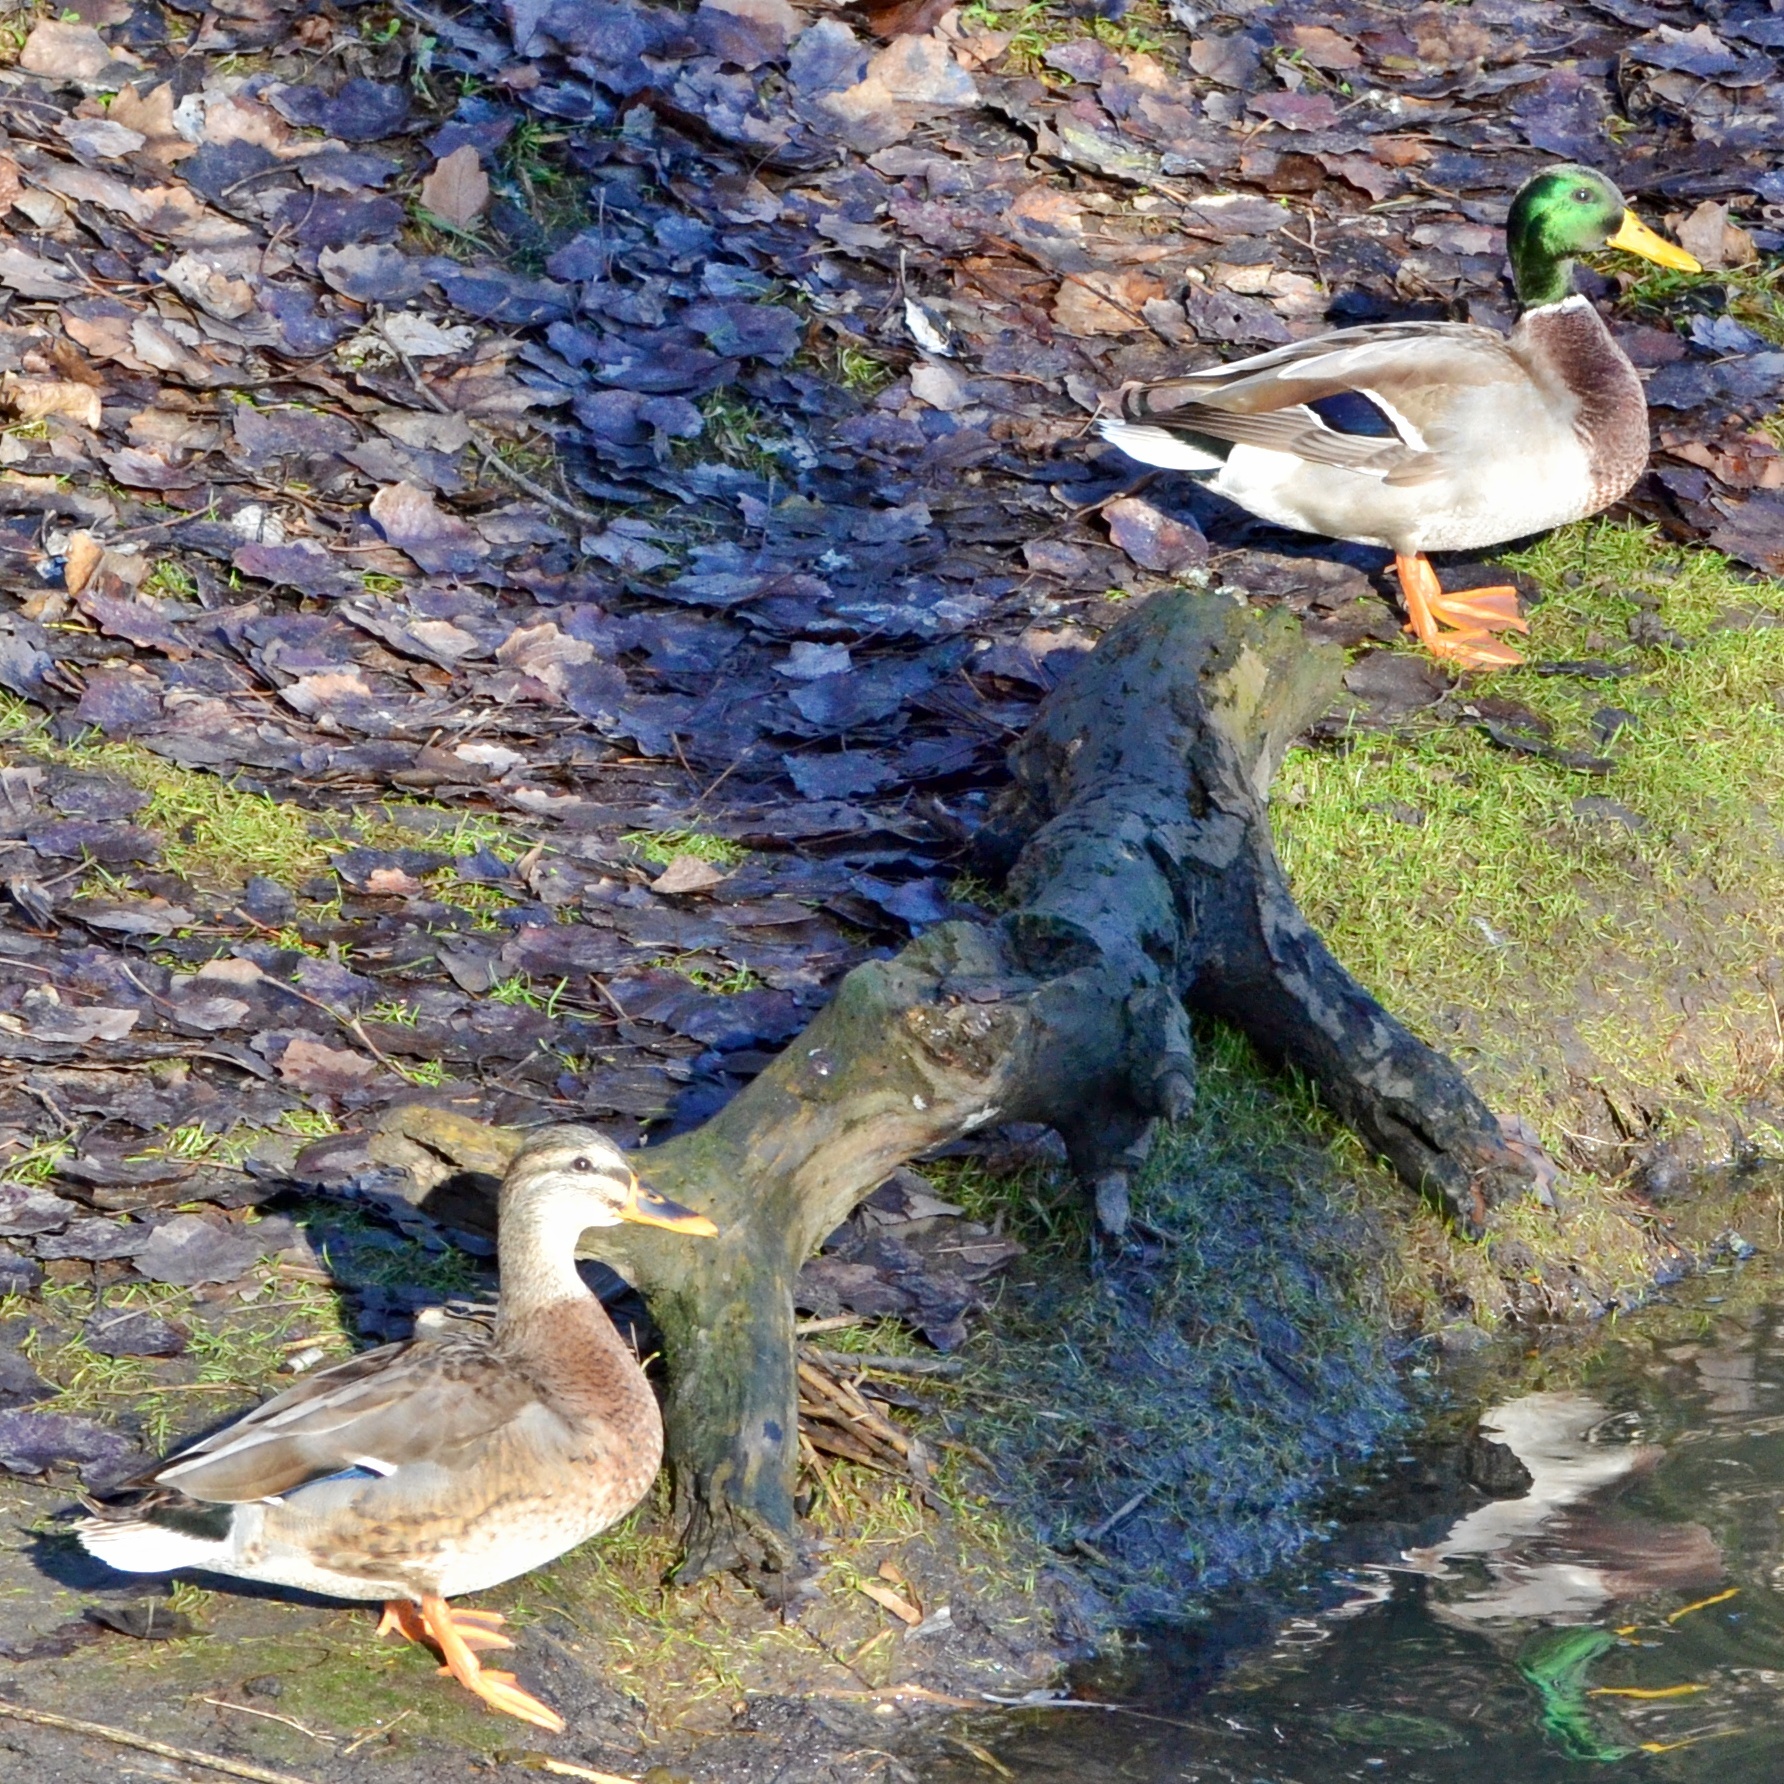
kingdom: Animalia
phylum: Chordata
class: Aves
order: Anseriformes
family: Anatidae
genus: Anas
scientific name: Anas platyrhynchos
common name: Mallard
